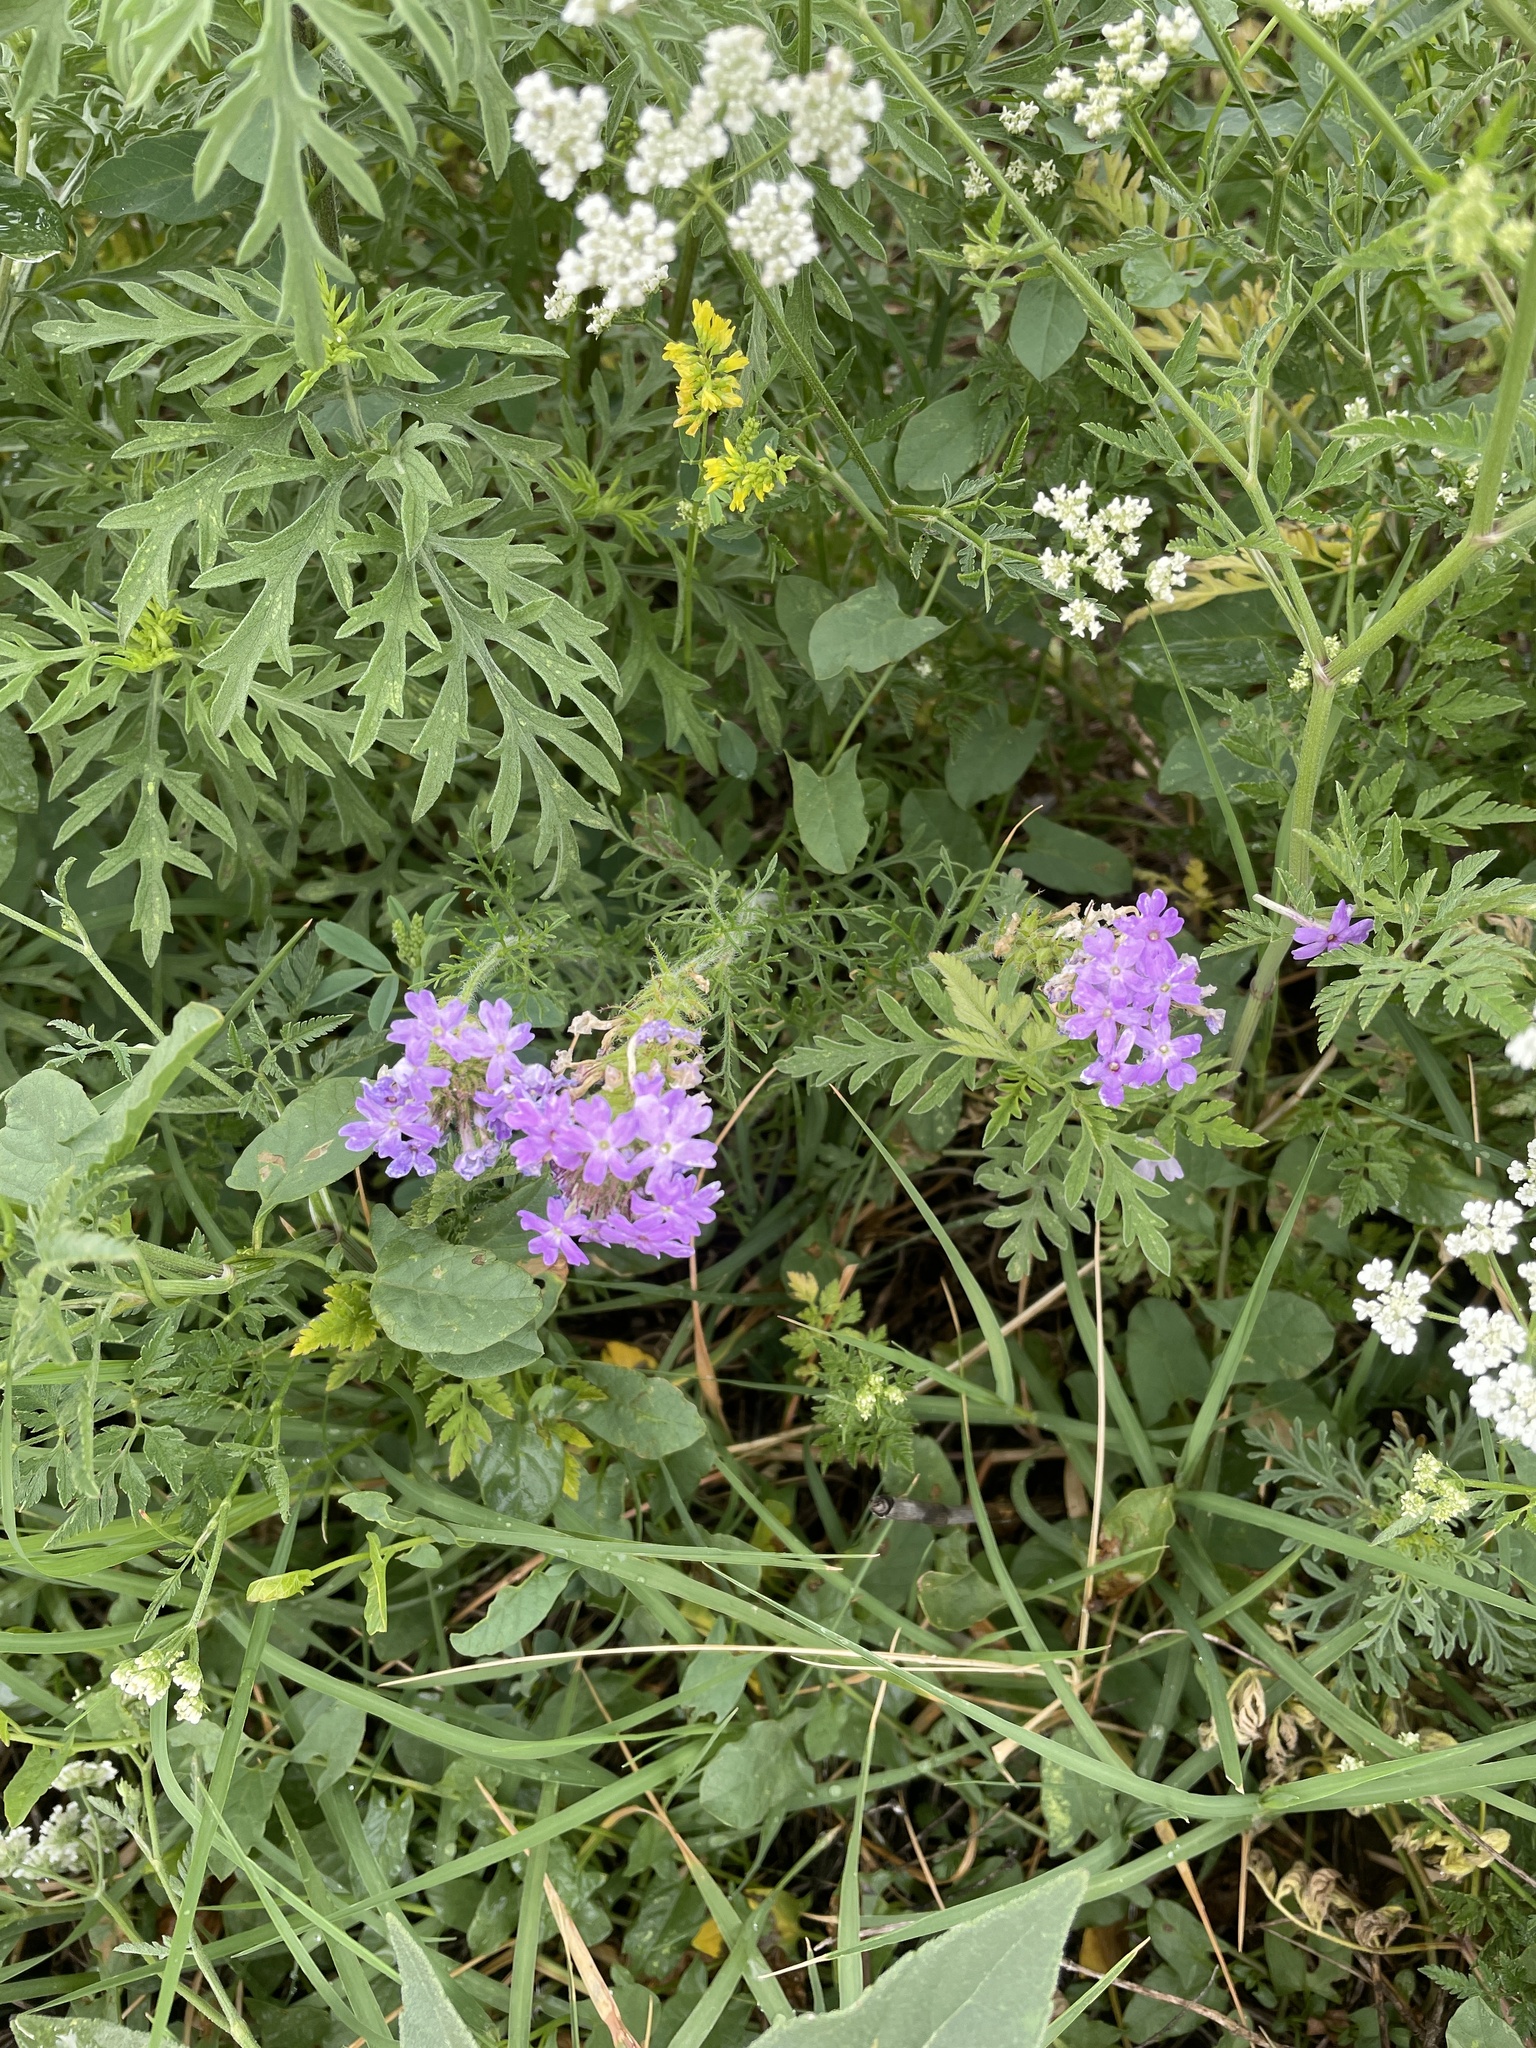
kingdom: Plantae
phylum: Tracheophyta
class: Magnoliopsida
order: Lamiales
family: Verbenaceae
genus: Verbena
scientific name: Verbena bipinnatifida
